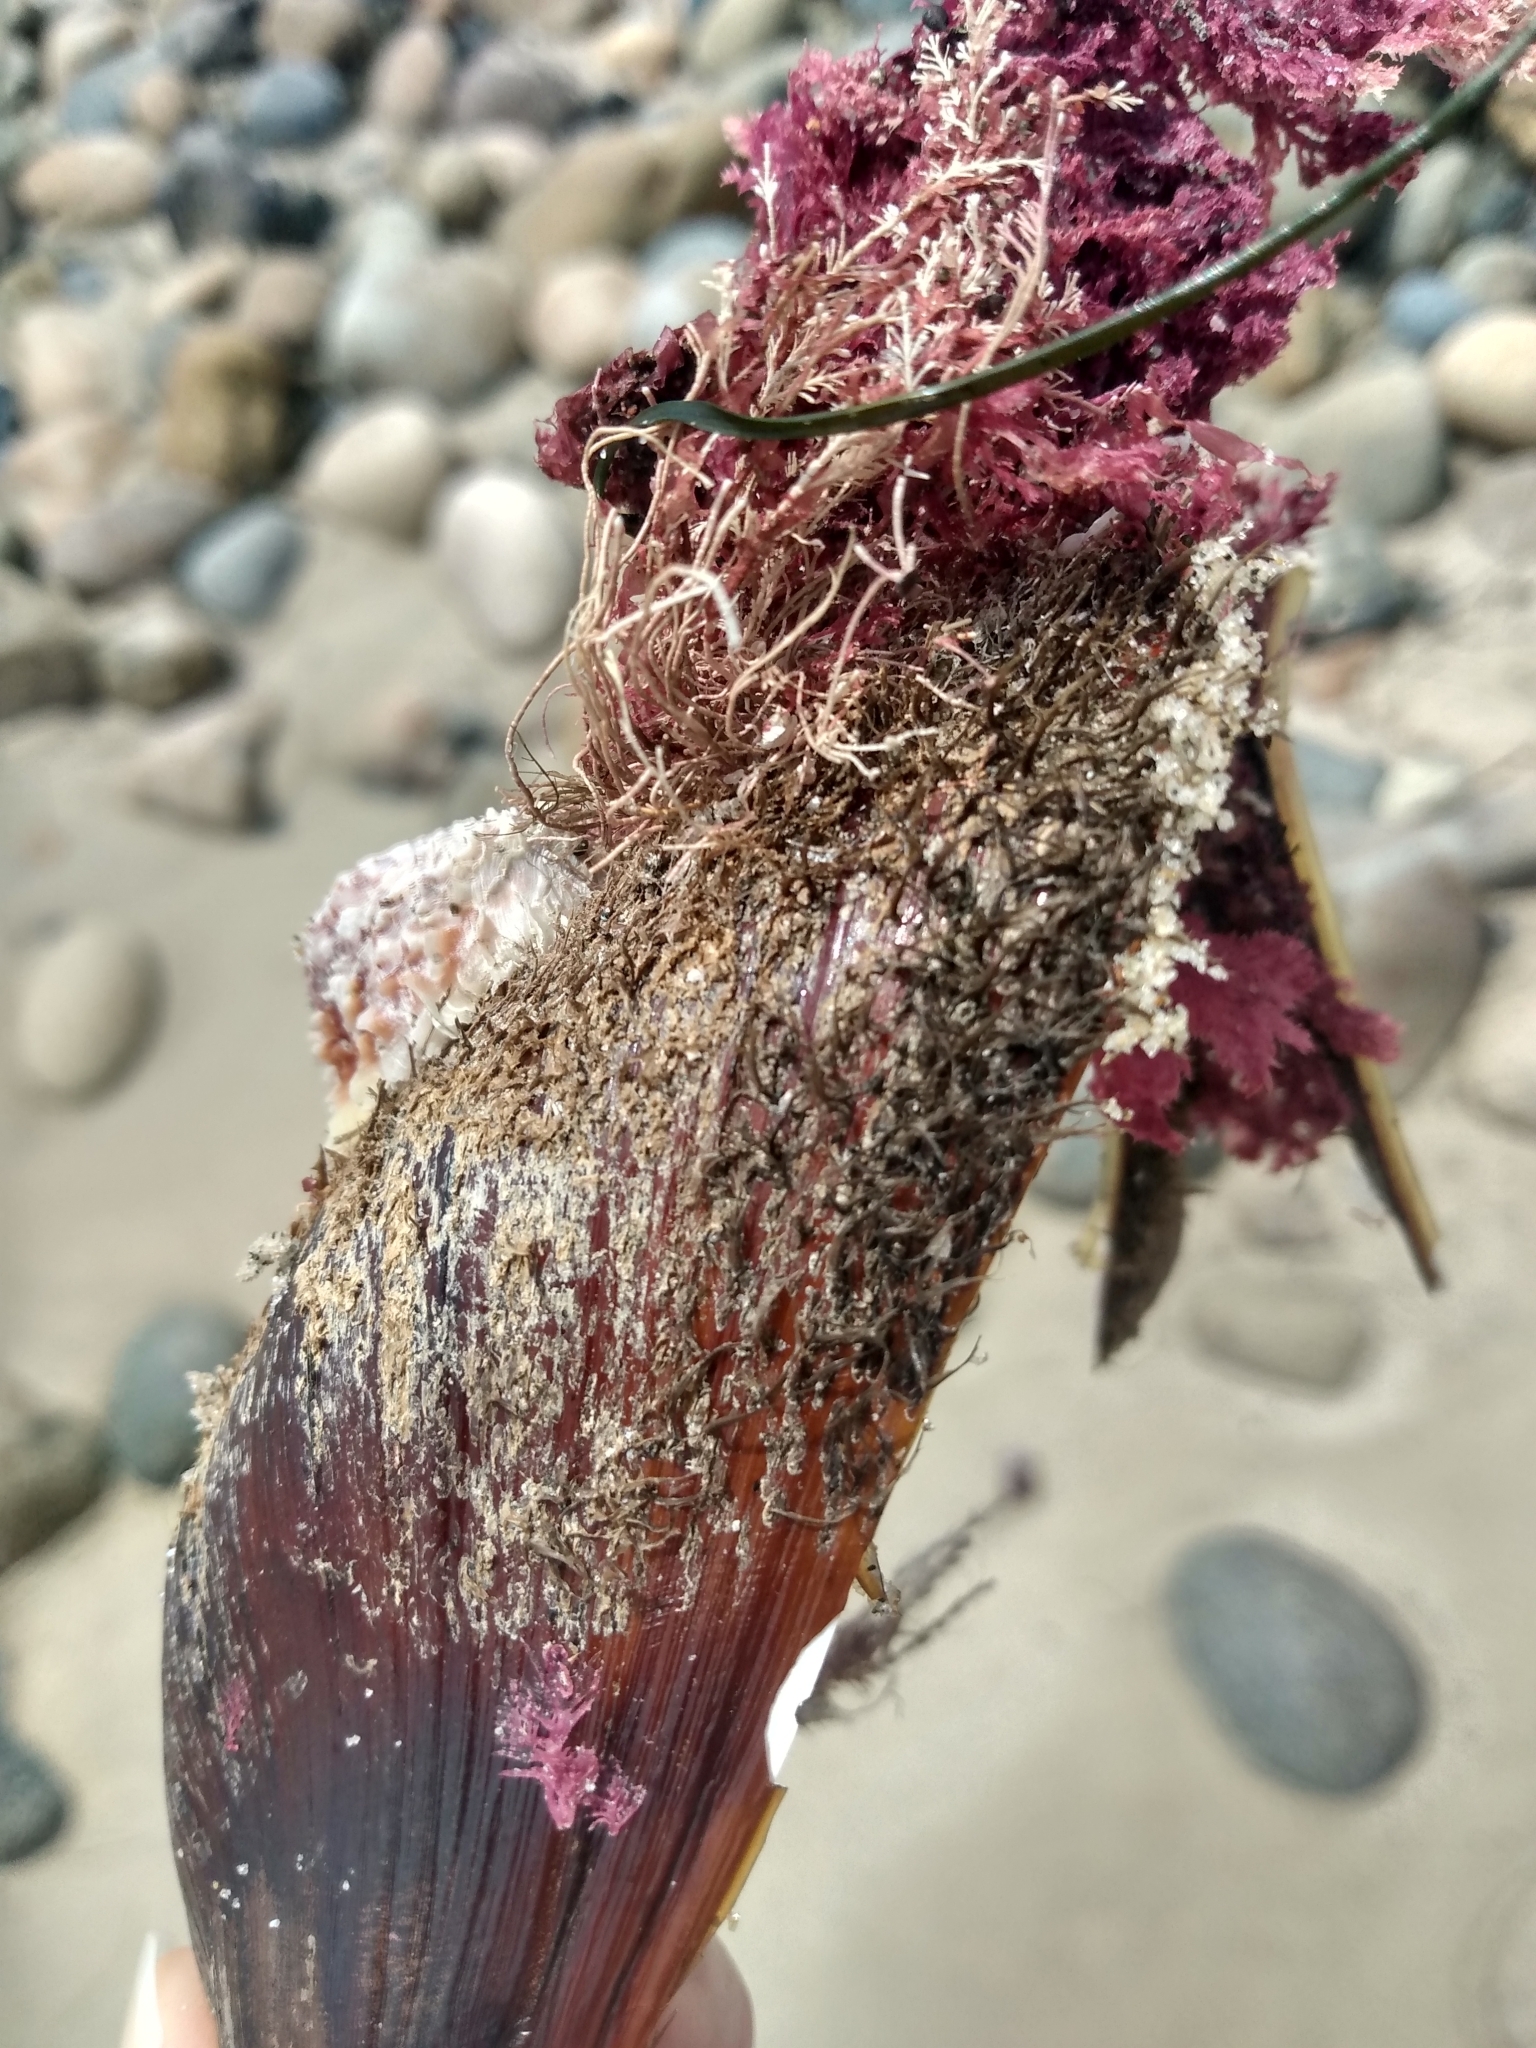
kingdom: Animalia
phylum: Mollusca
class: Bivalvia
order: Mytilida
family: Mytilidae
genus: Modiolus
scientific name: Modiolus capax
